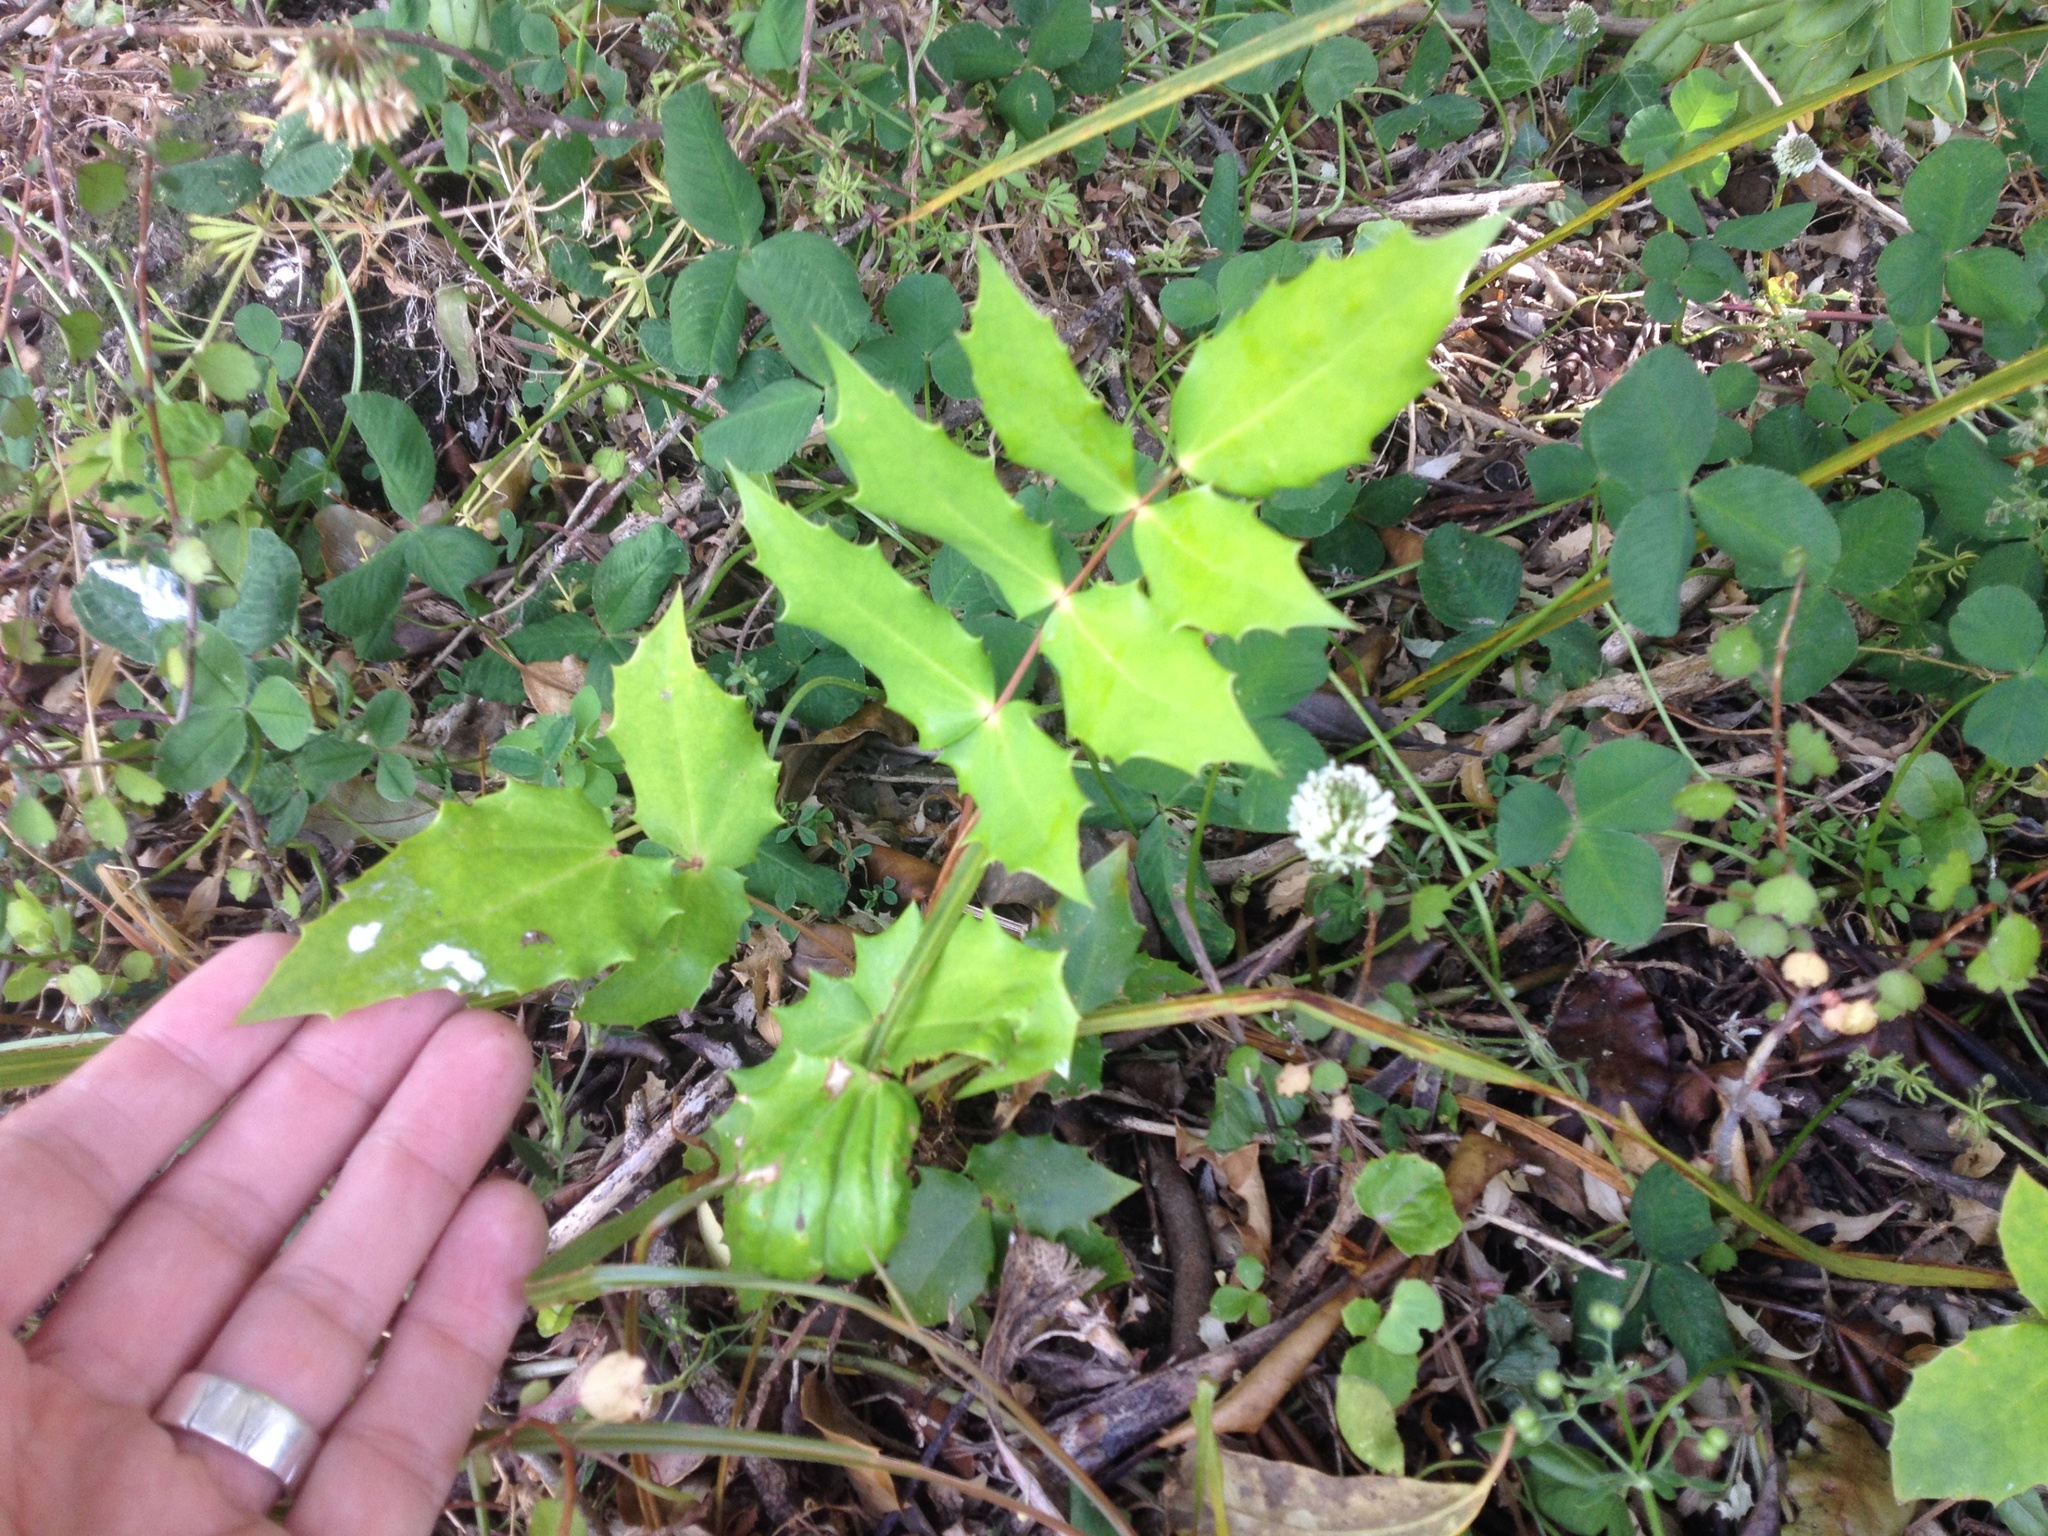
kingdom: Plantae
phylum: Tracheophyta
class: Magnoliopsida
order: Ranunculales
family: Berberidaceae
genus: Mahonia
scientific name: Mahonia oiwakensis
